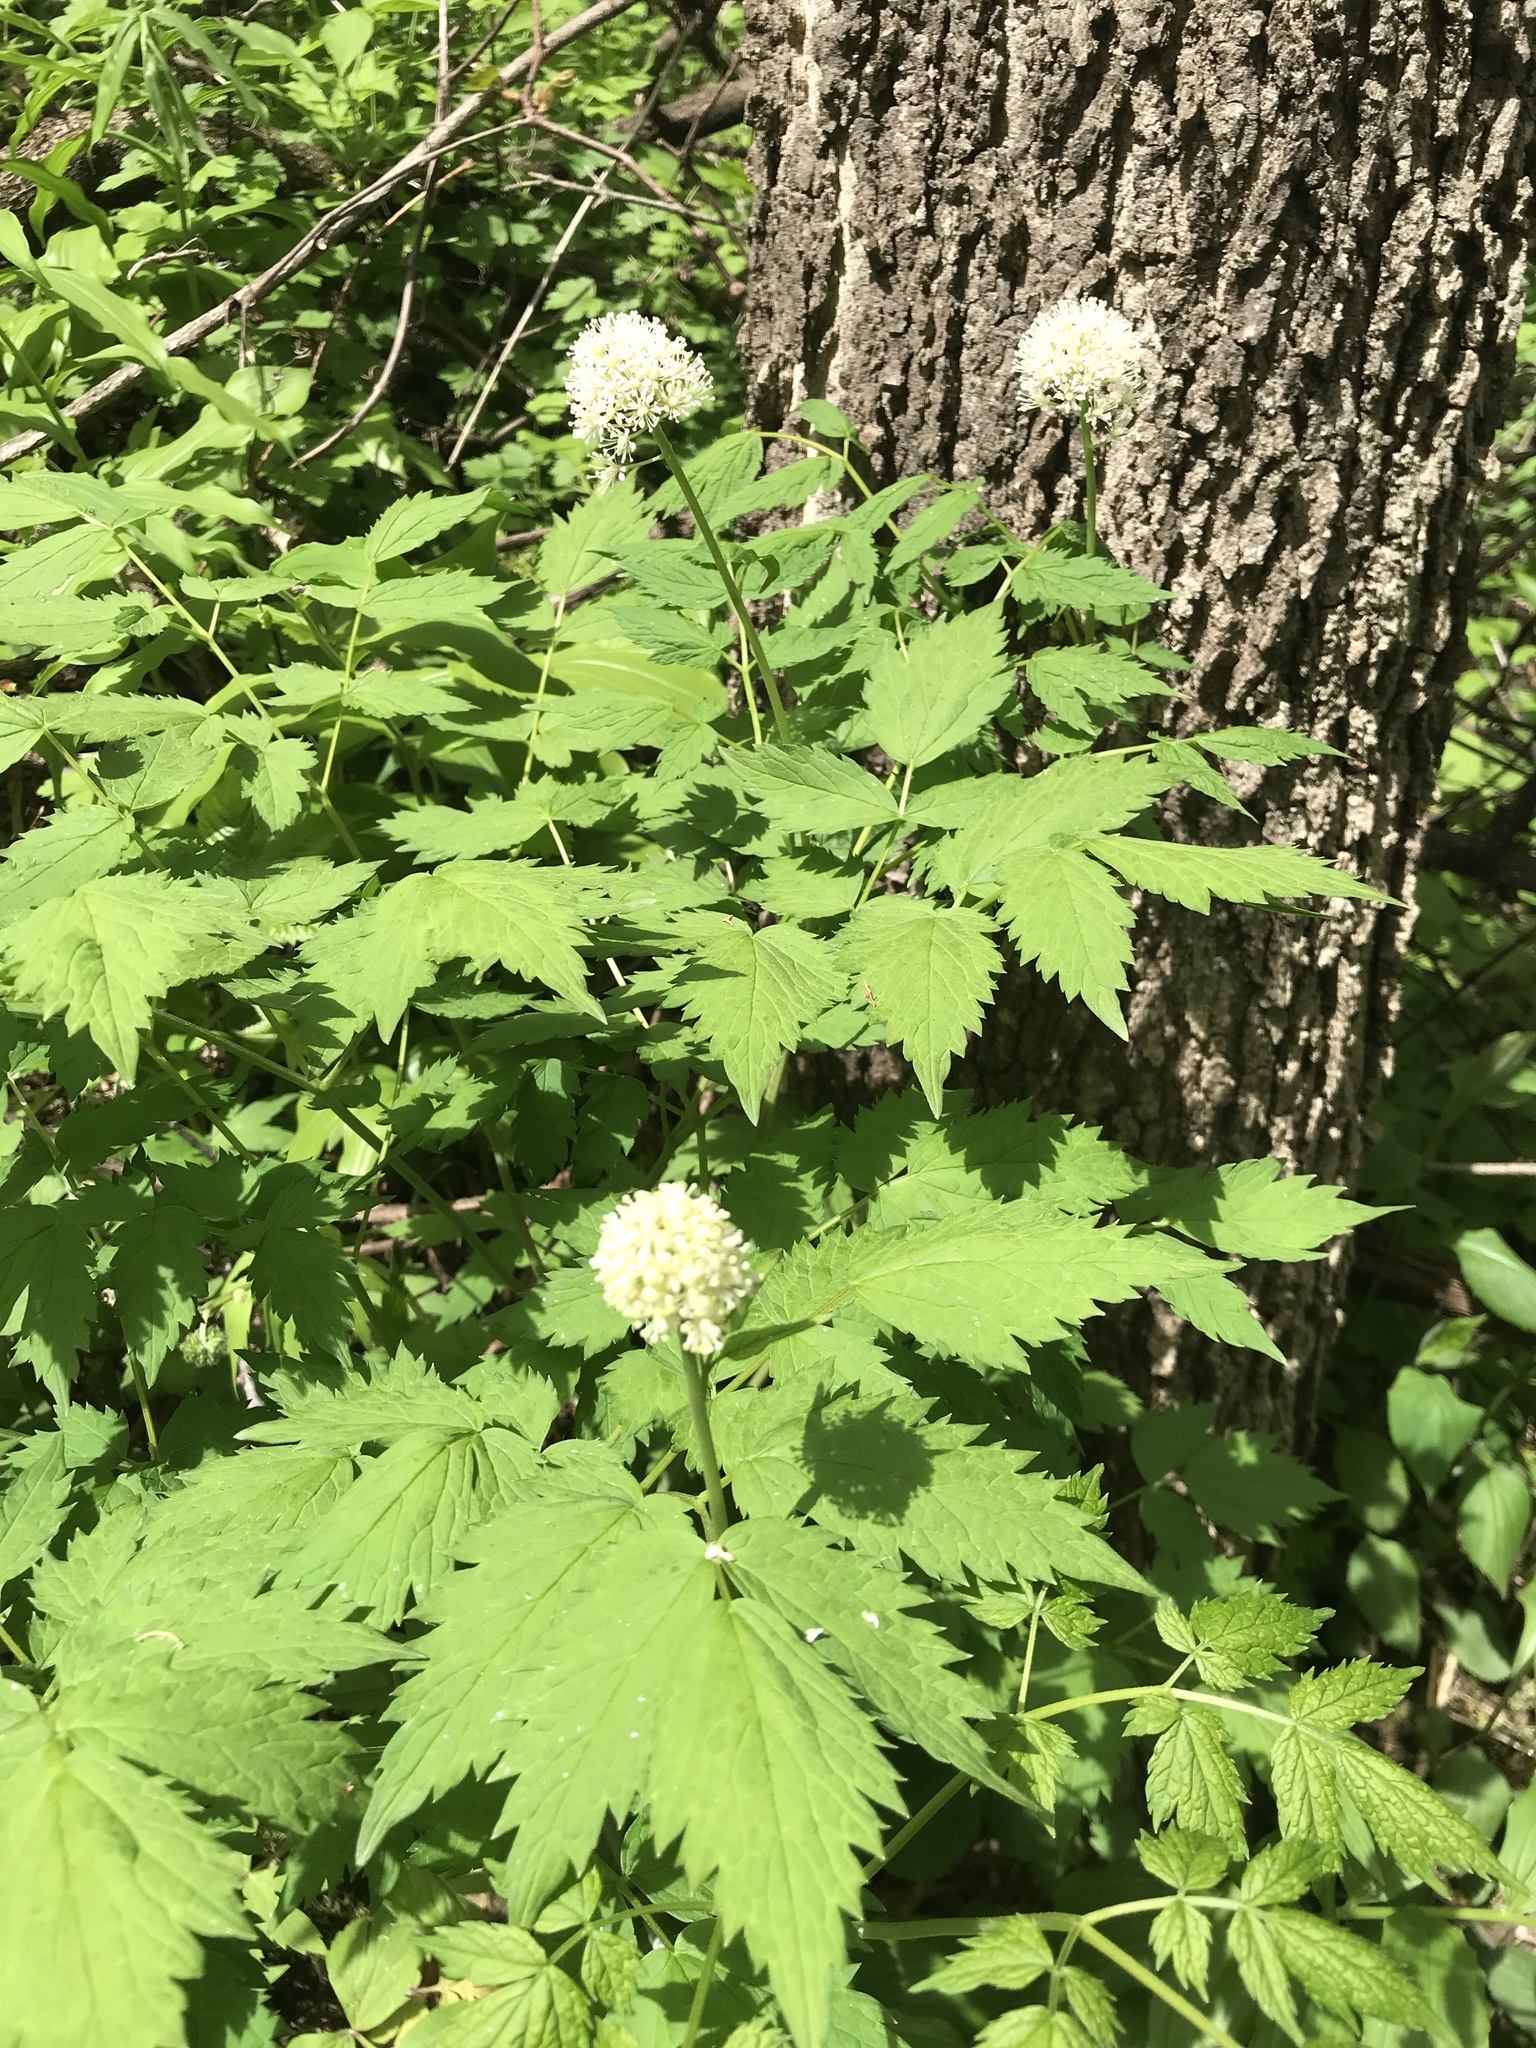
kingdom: Plantae
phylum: Tracheophyta
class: Magnoliopsida
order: Ranunculales
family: Ranunculaceae
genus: Actaea
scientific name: Actaea rubra
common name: Red baneberry
